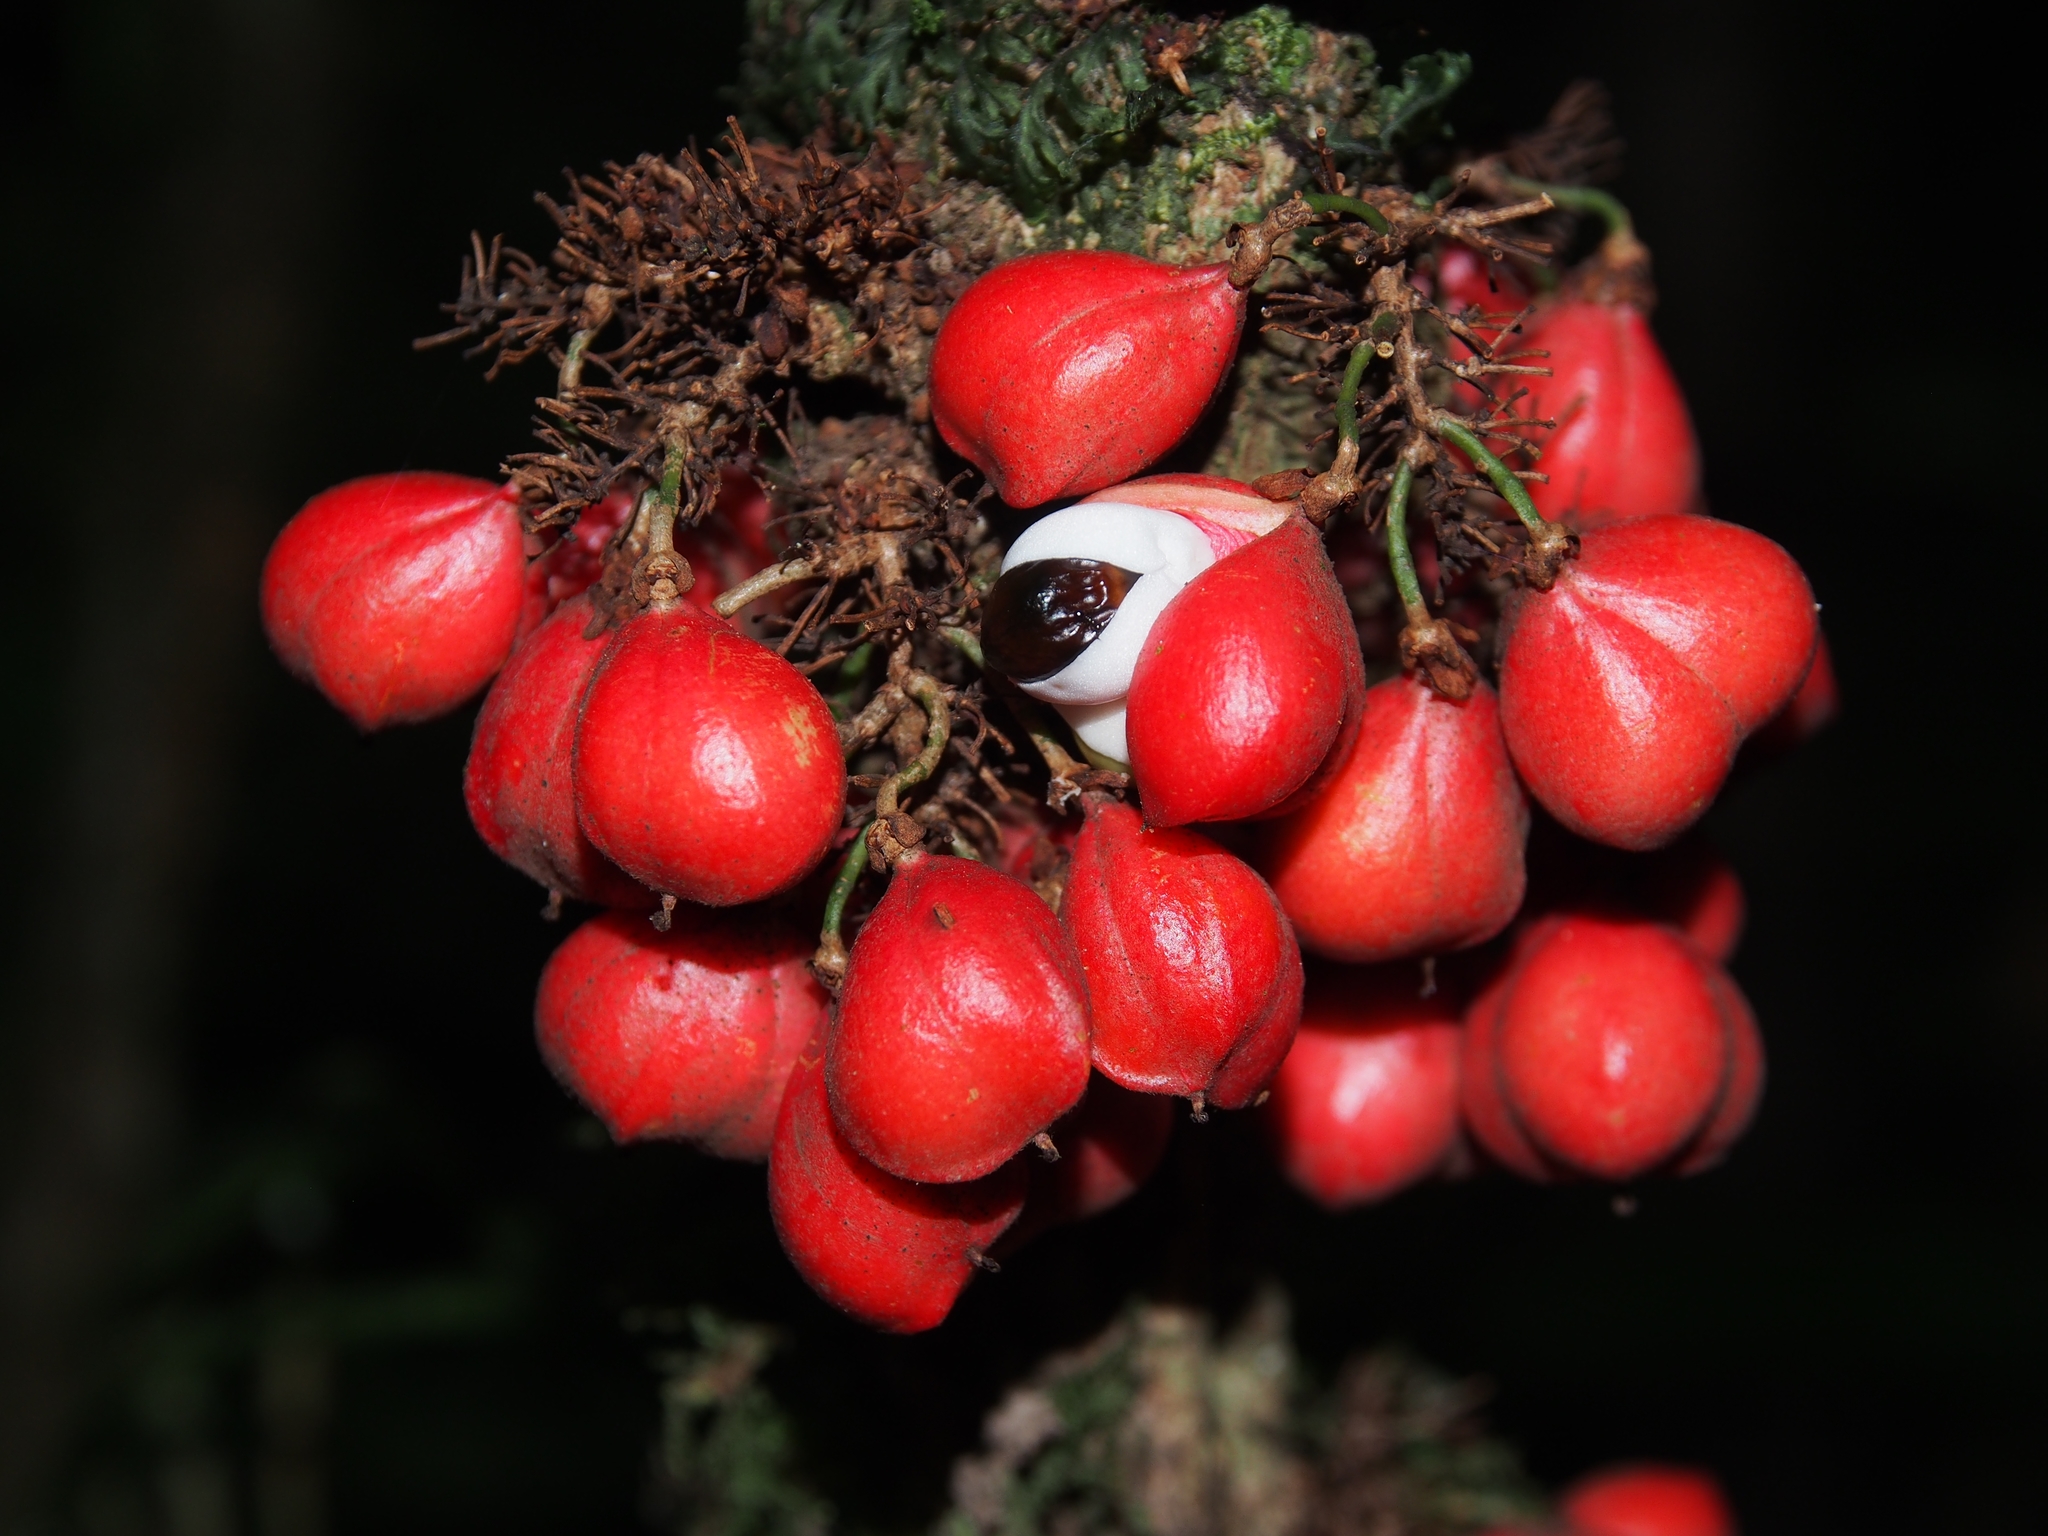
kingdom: Plantae
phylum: Tracheophyta
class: Magnoliopsida
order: Sapindales
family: Sapindaceae
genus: Paullinia
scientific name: Paullinia alata
